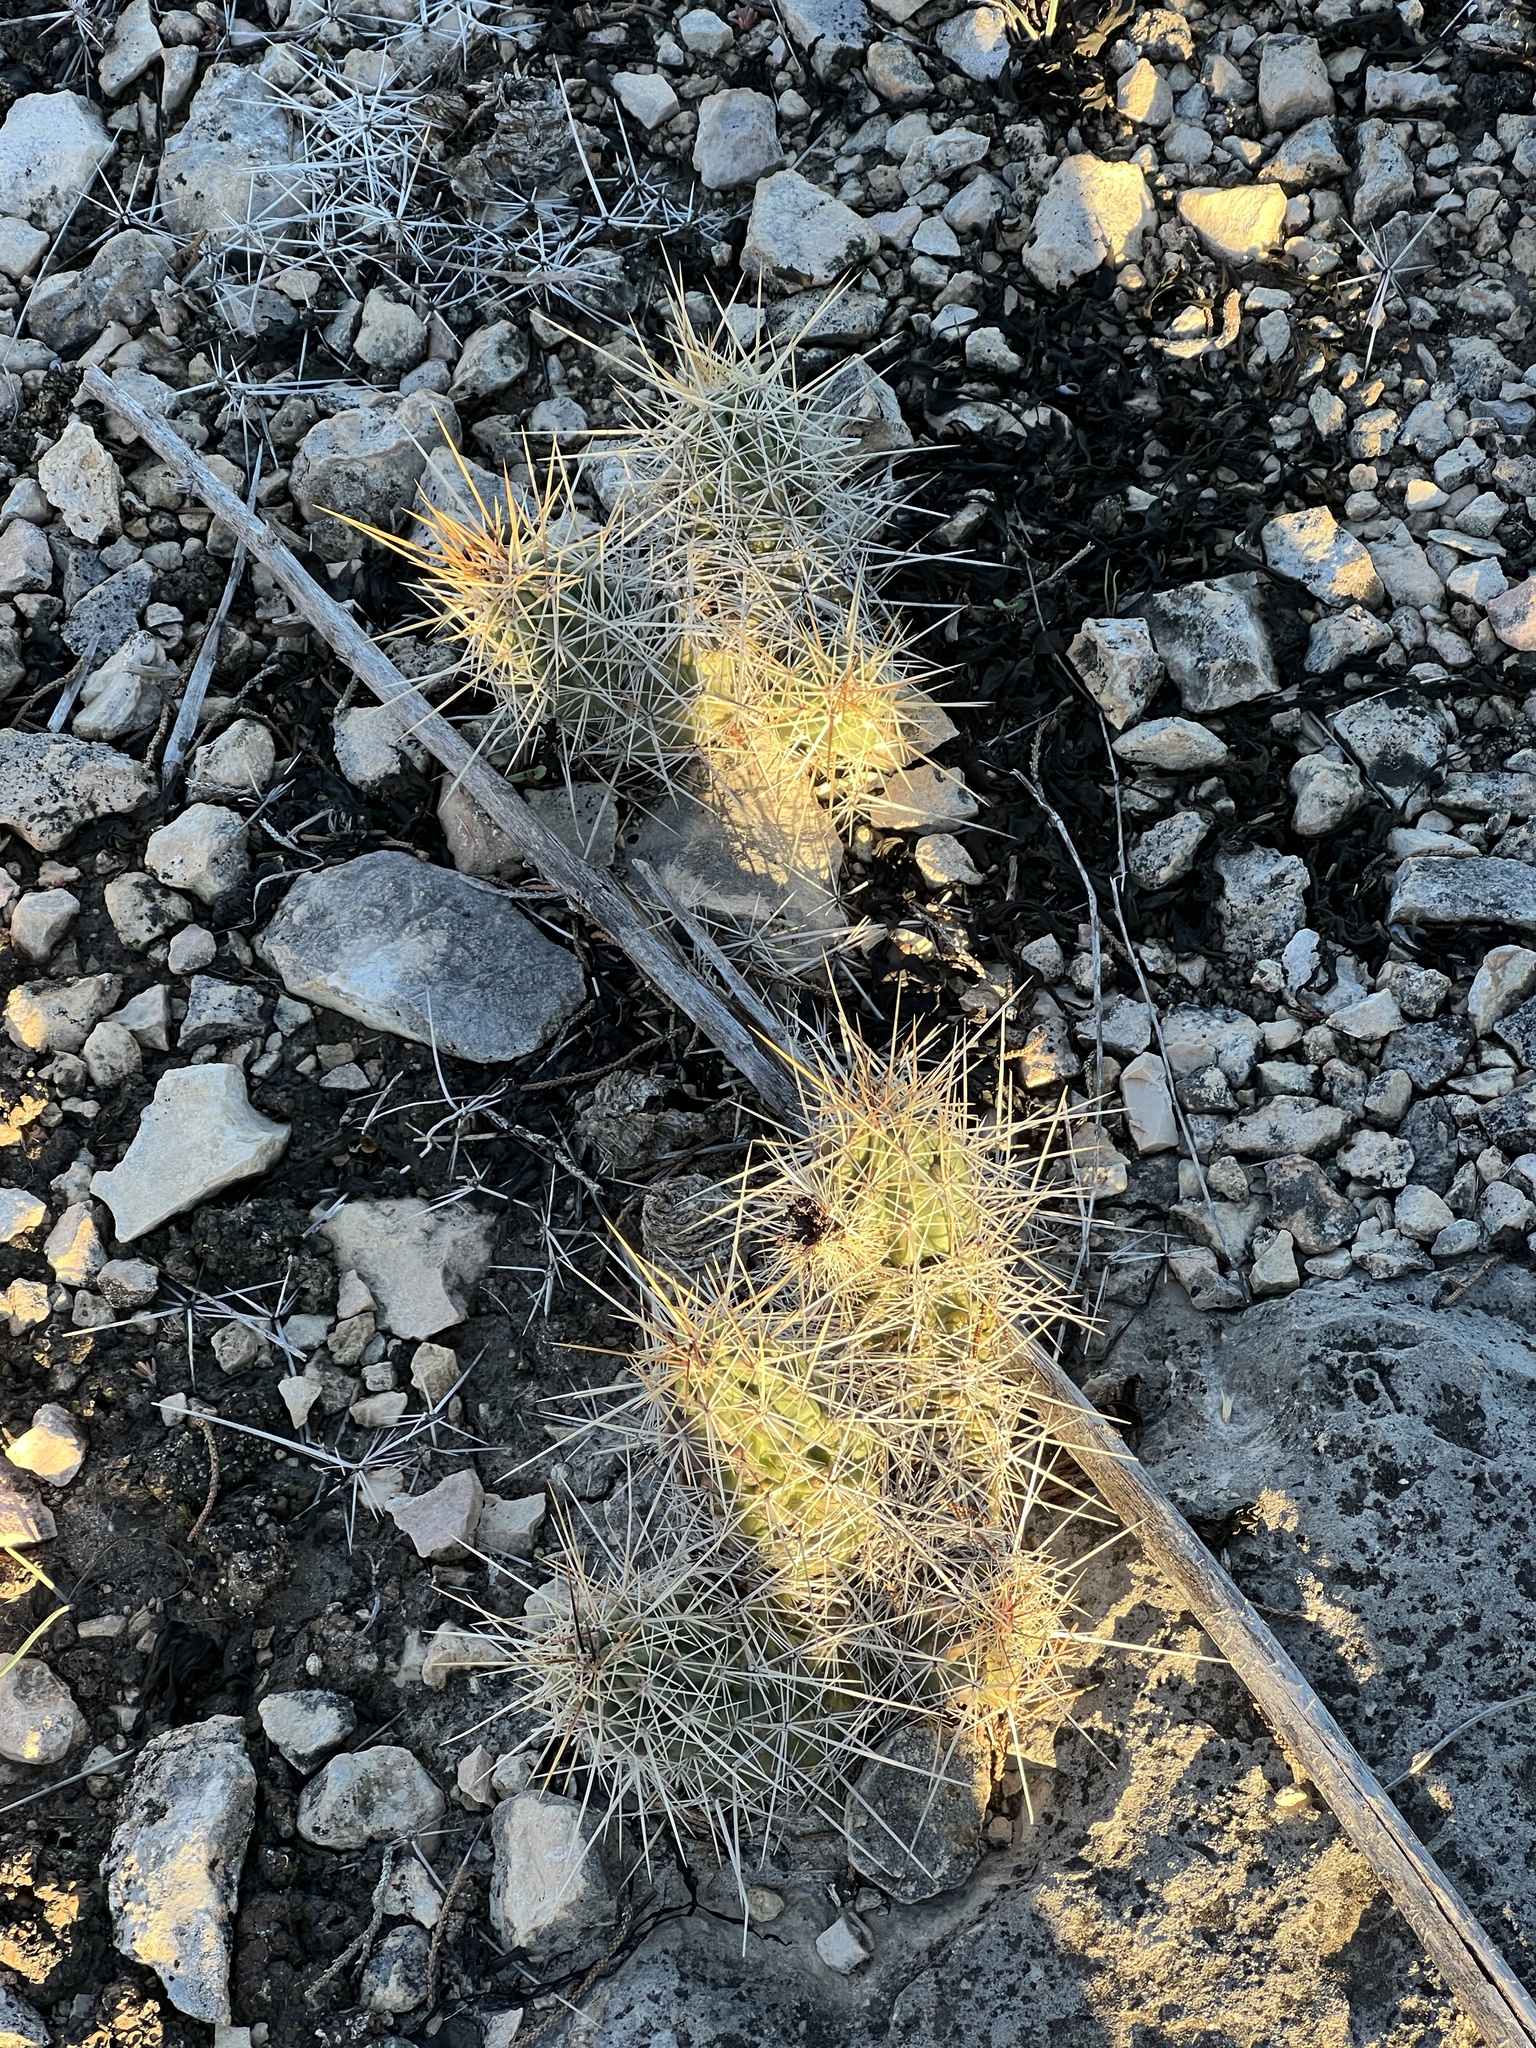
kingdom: Plantae
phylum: Tracheophyta
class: Magnoliopsida
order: Caryophyllales
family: Cactaceae
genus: Echinocereus
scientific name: Echinocereus enneacanthus
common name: Pitaya
